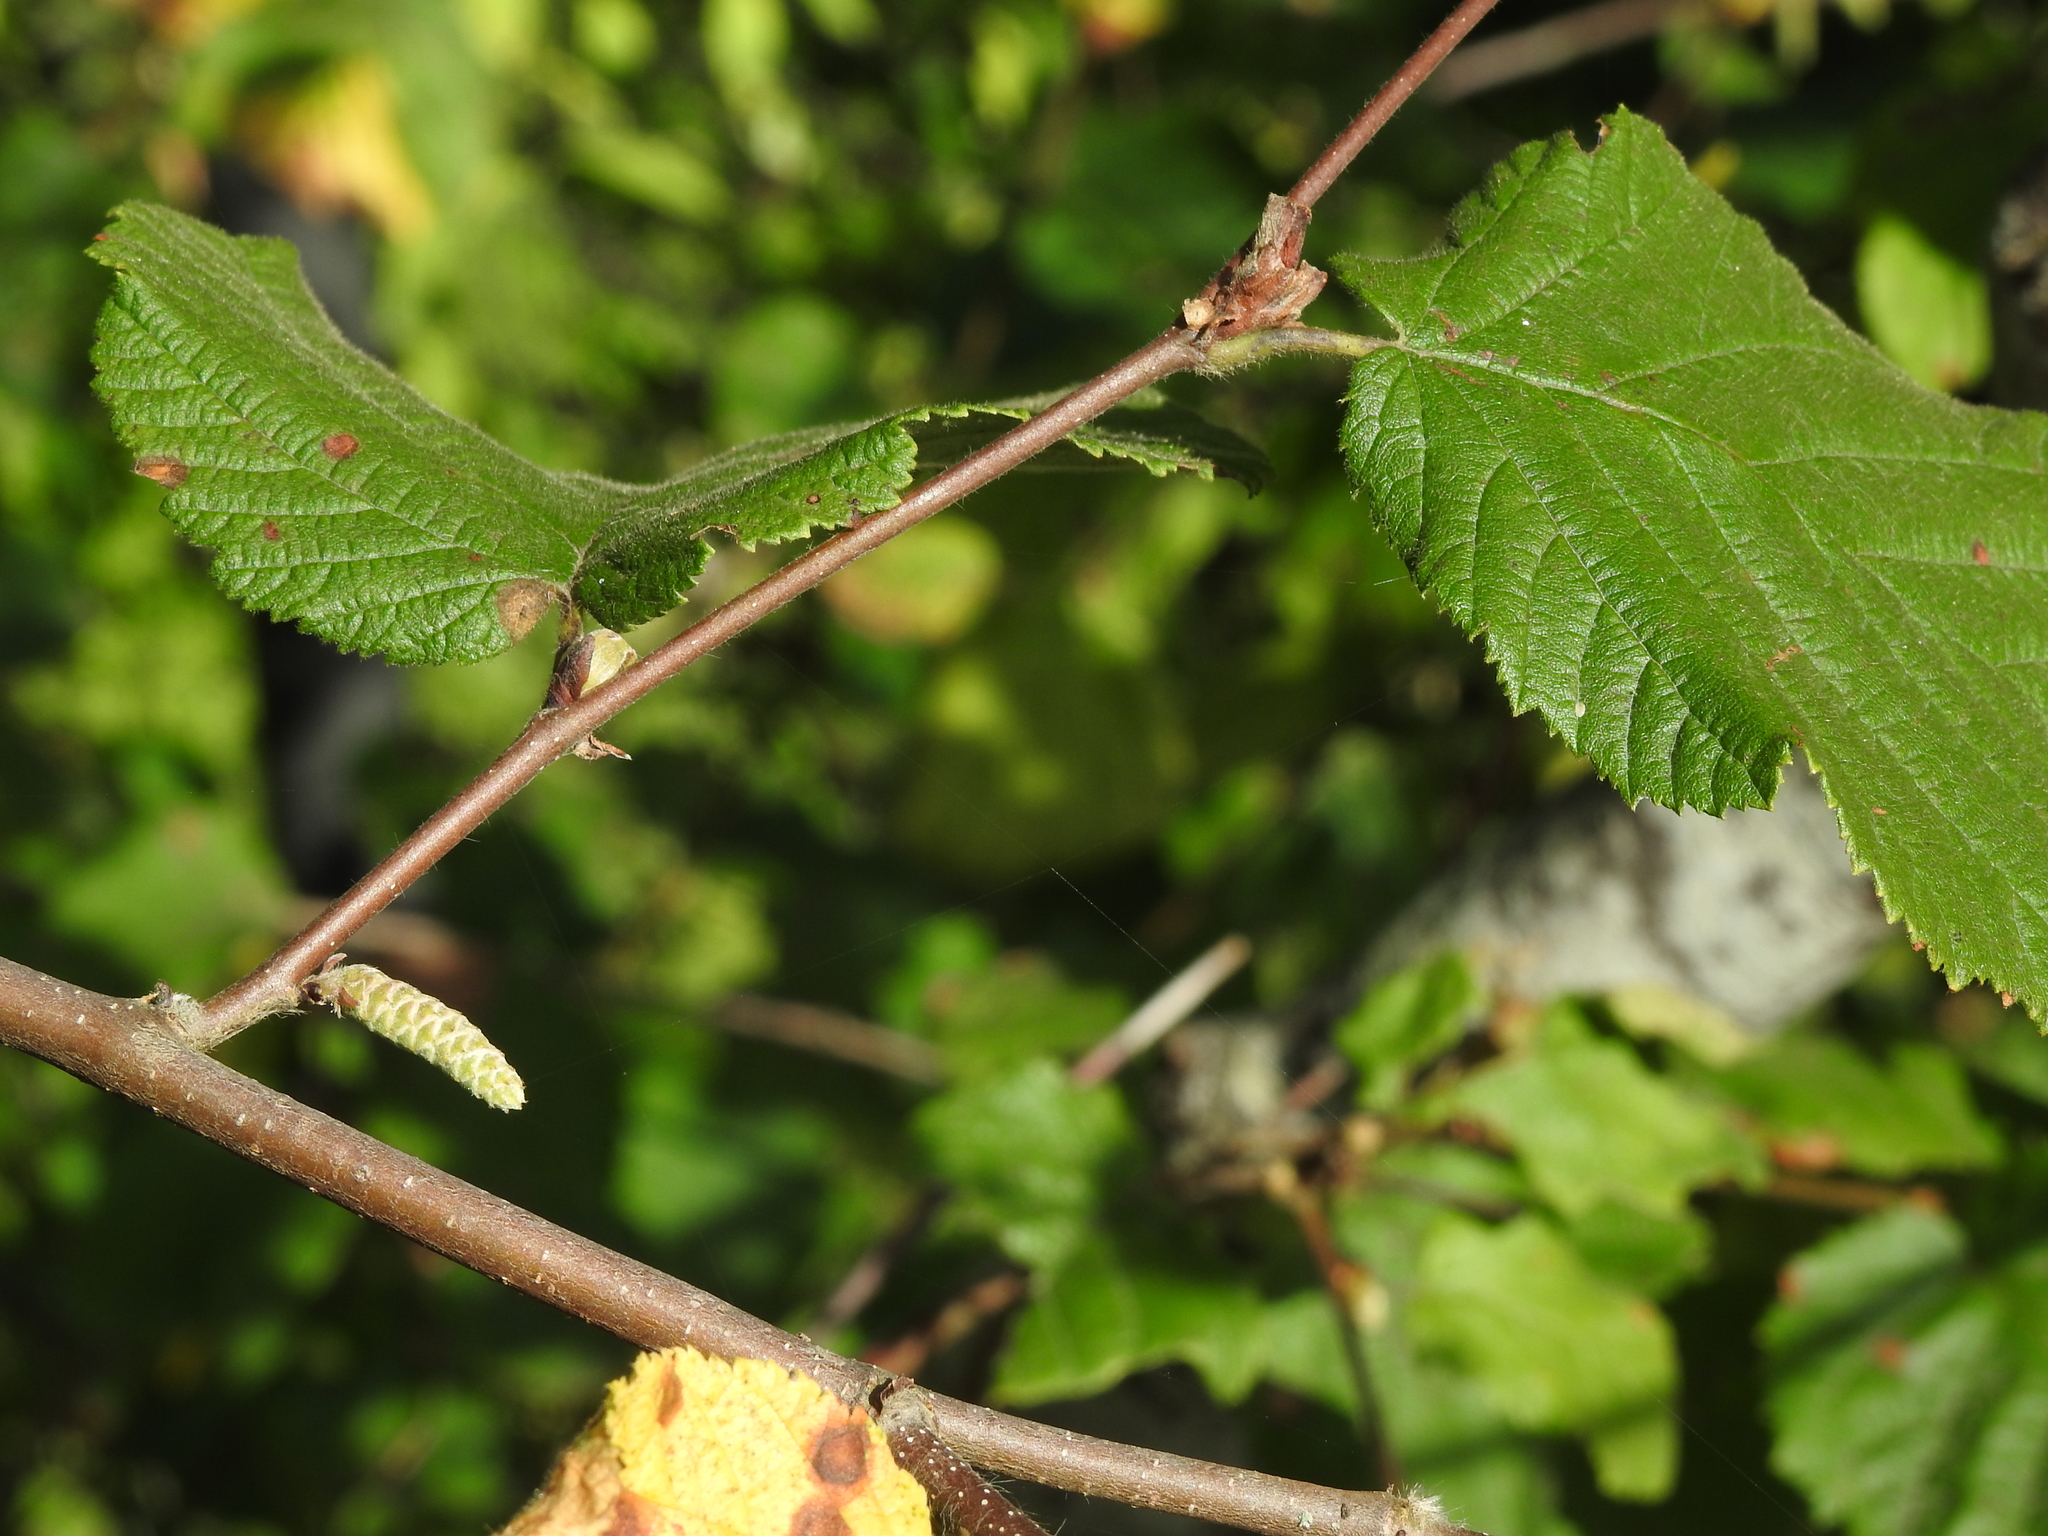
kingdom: Plantae
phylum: Tracheophyta
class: Magnoliopsida
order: Fagales
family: Betulaceae
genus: Corylus
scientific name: Corylus cornuta
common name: Beaked hazel
